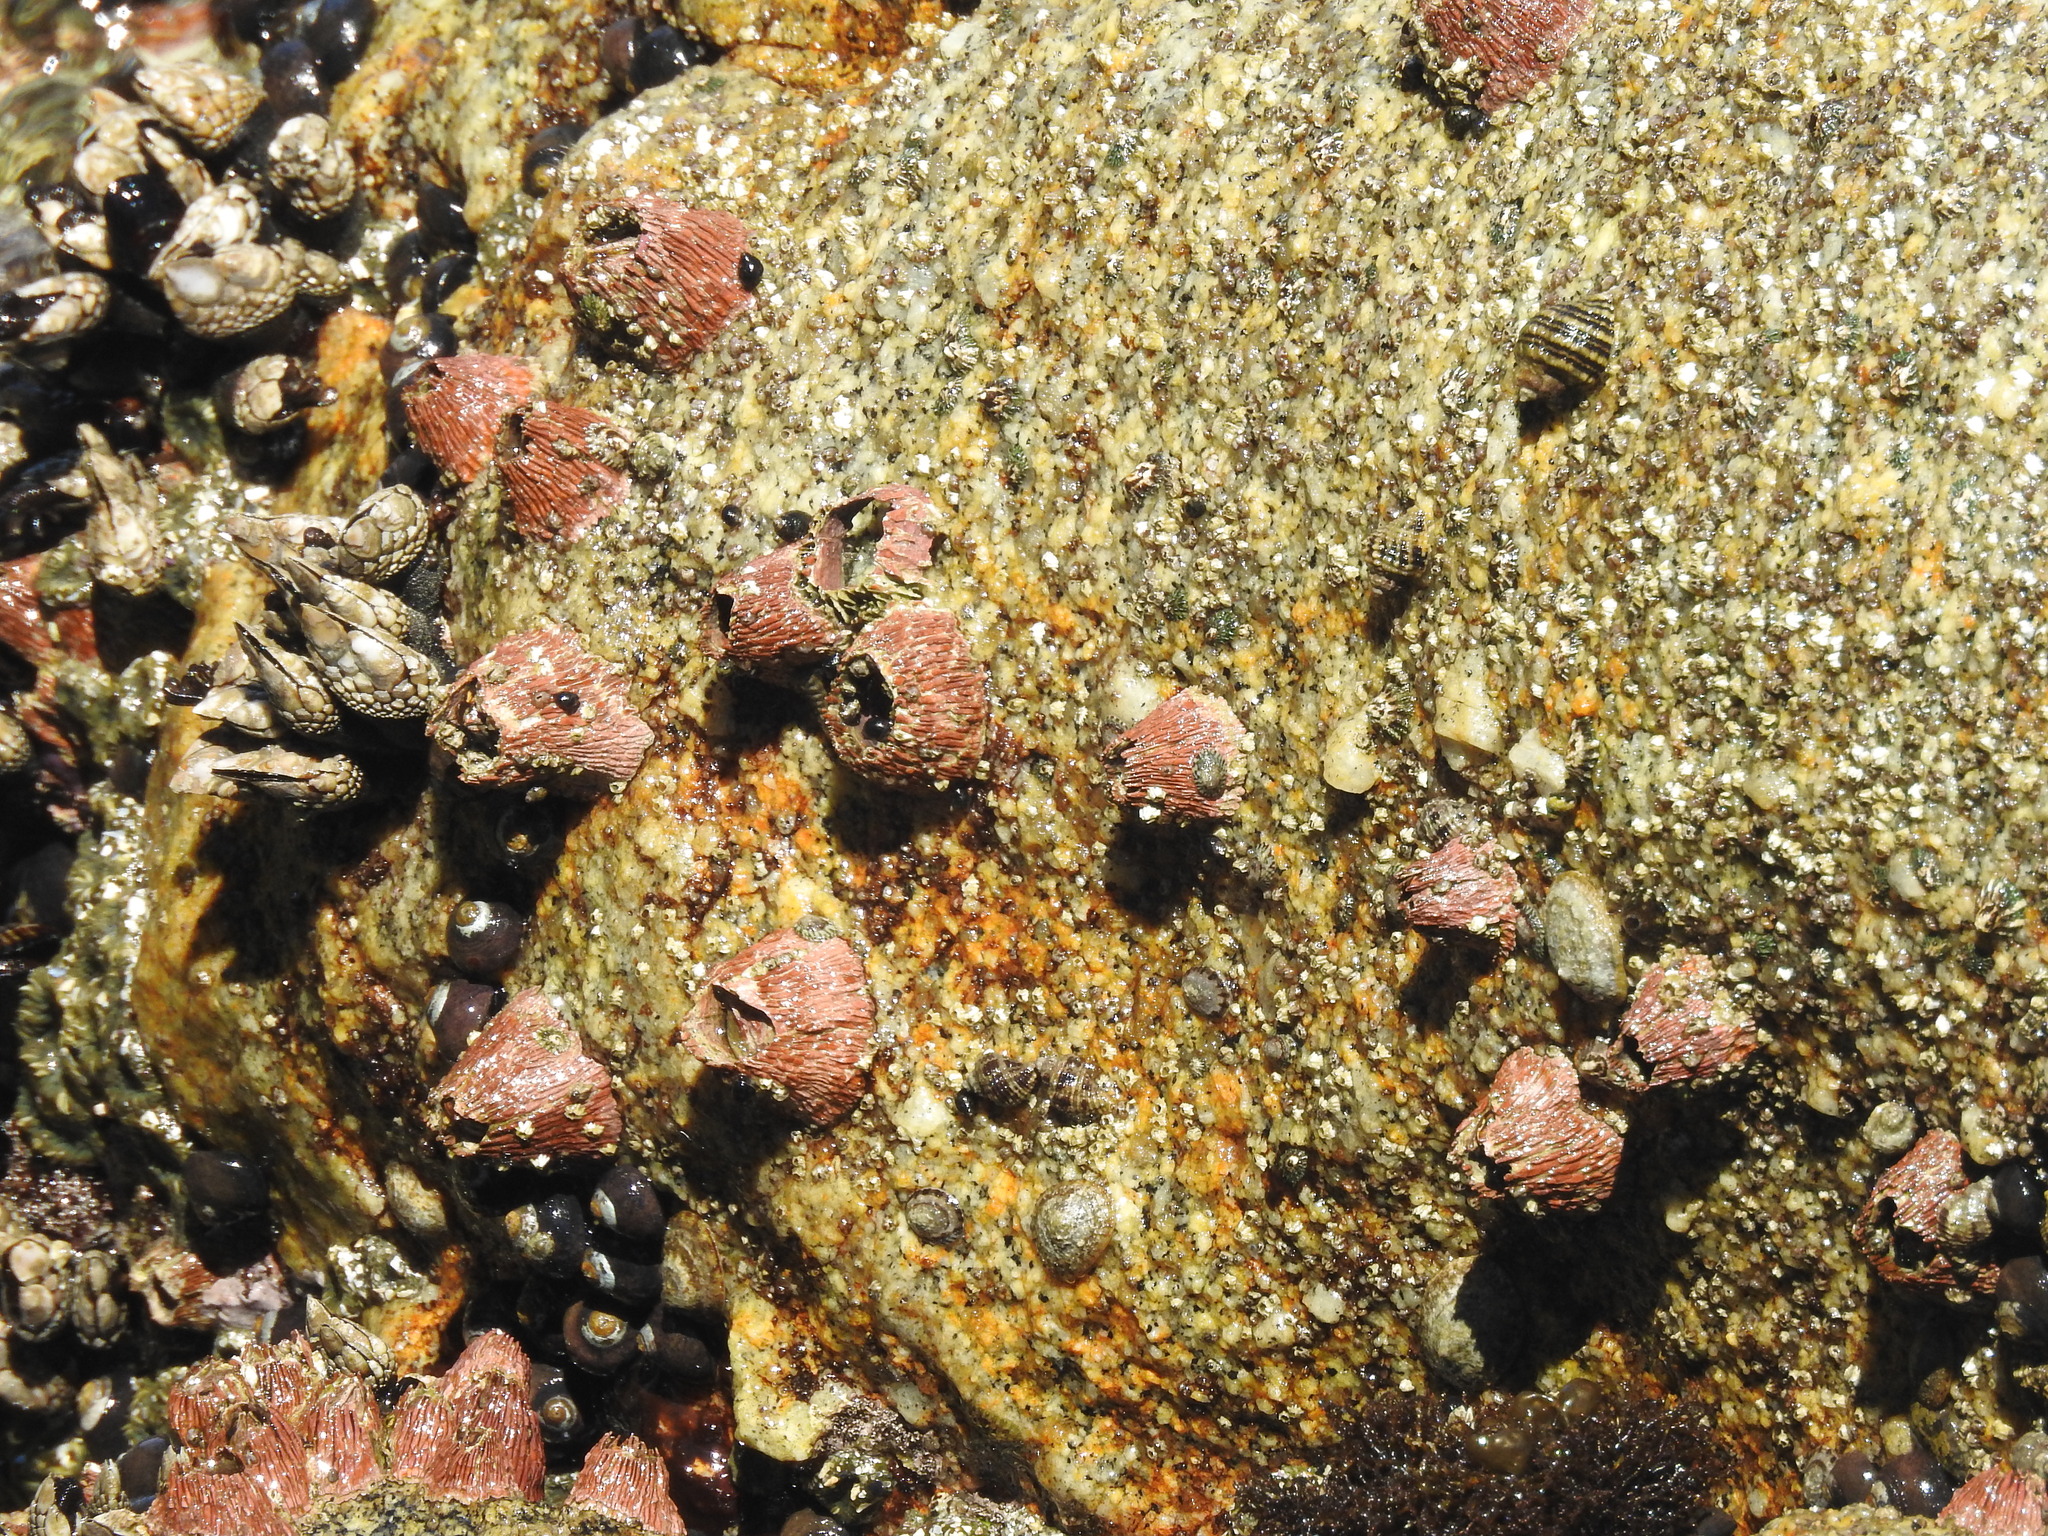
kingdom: Animalia
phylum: Arthropoda
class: Maxillopoda
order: Sessilia
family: Tetraclitidae
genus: Tetraclita
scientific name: Tetraclita rubescens
